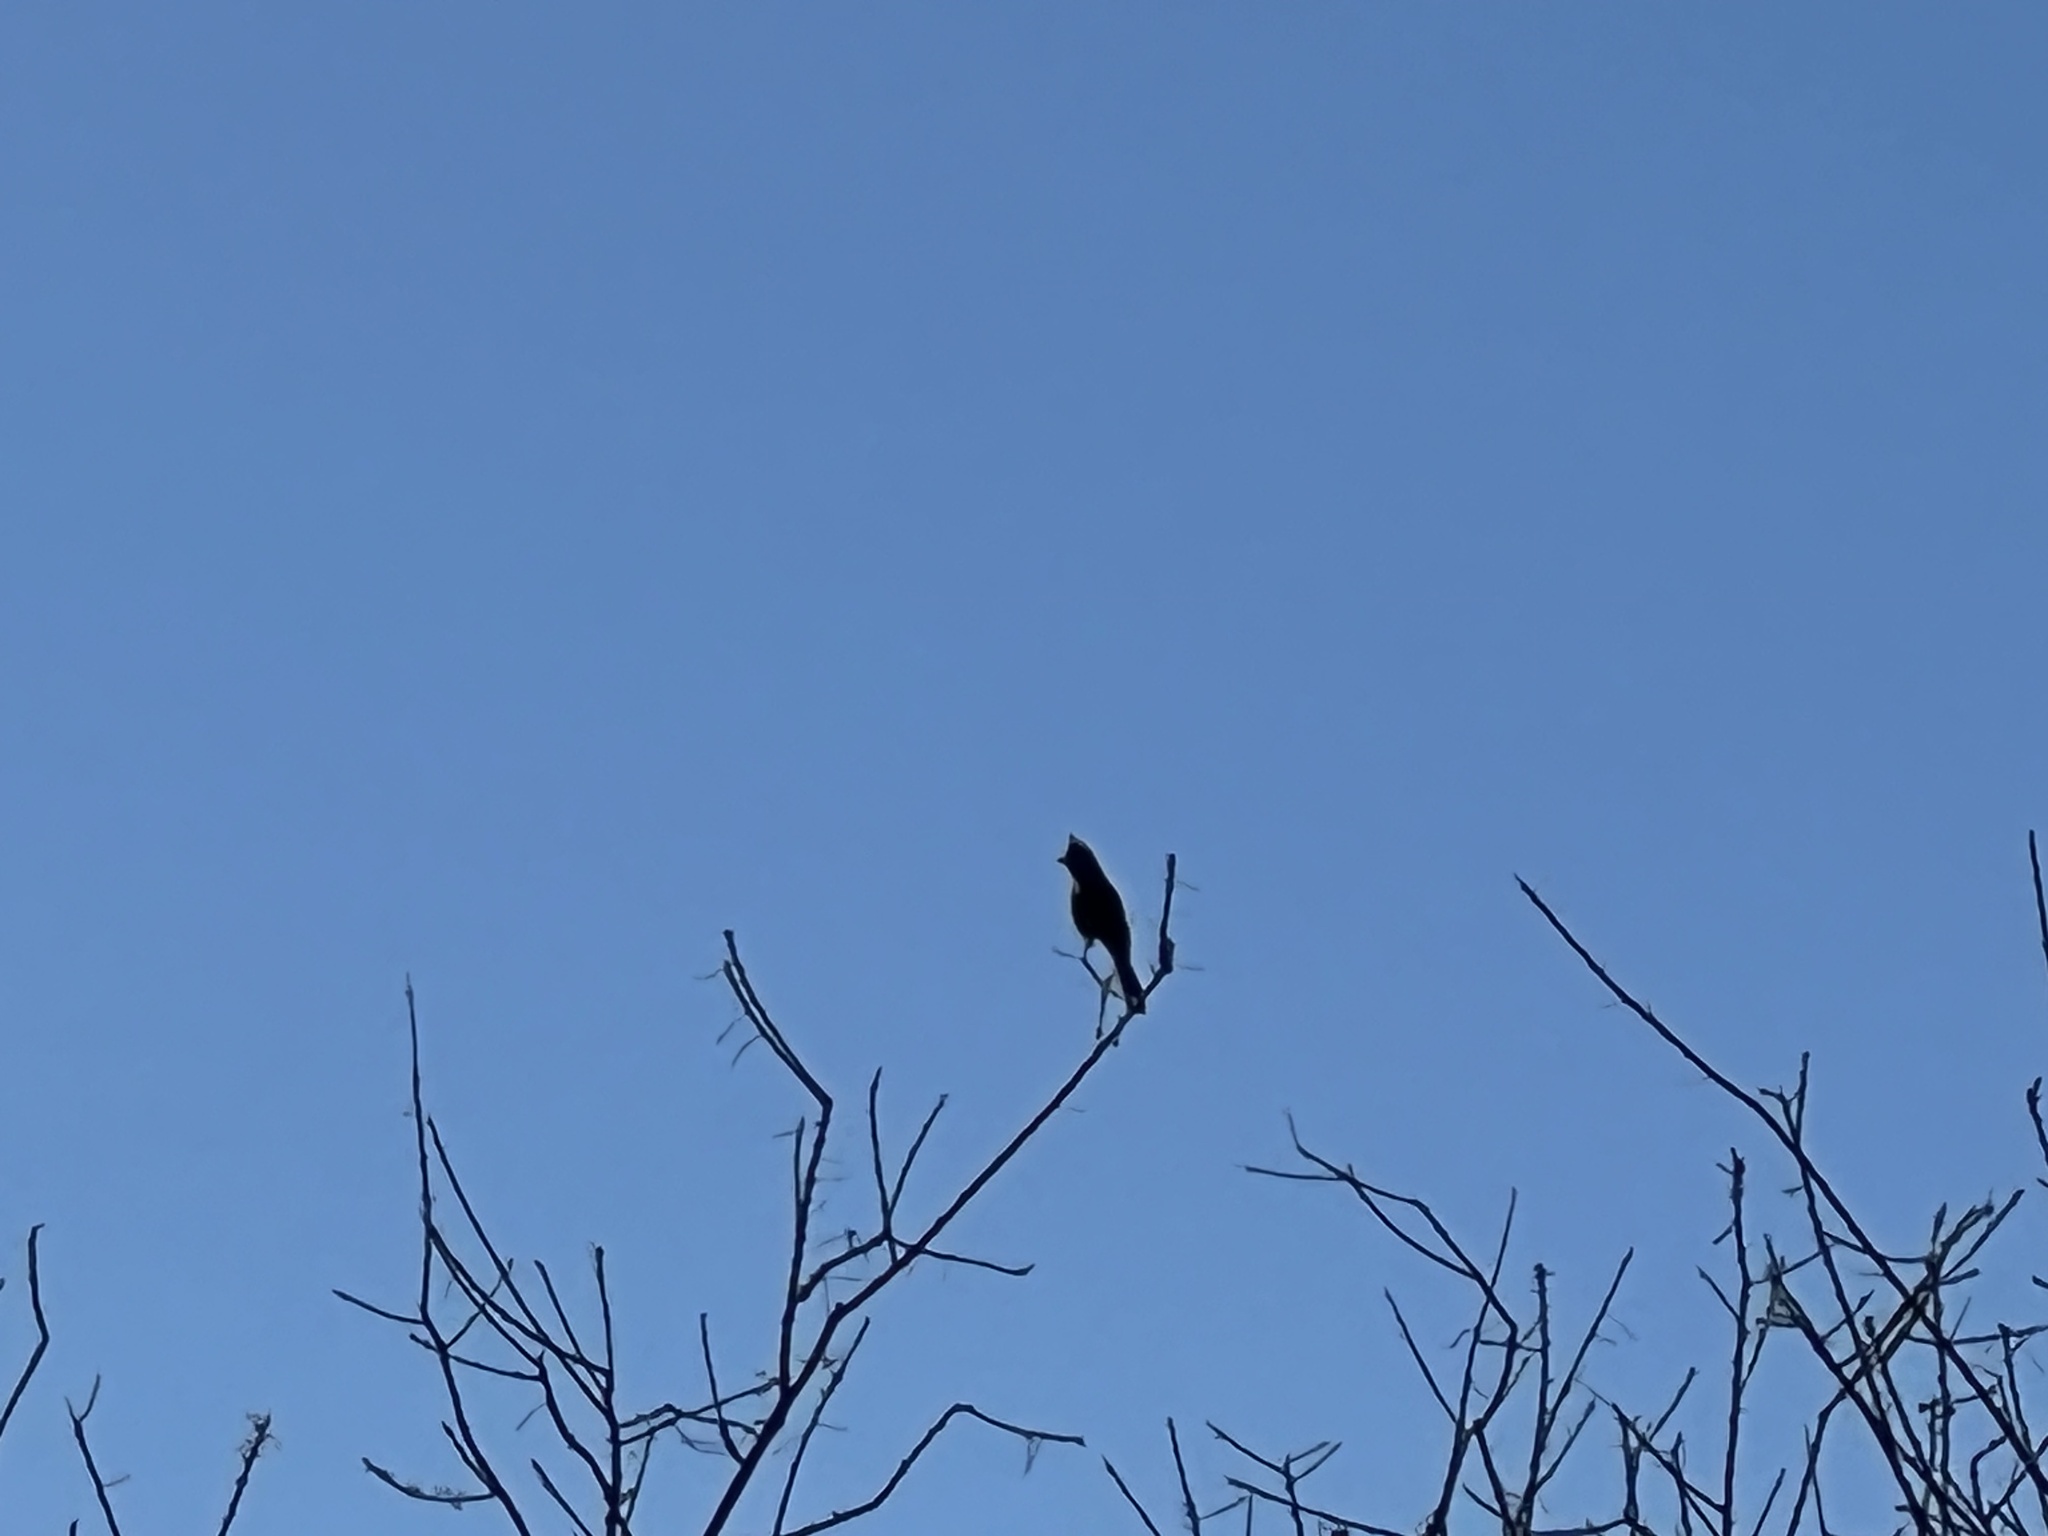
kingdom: Animalia
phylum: Chordata
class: Aves
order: Passeriformes
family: Ptilogonatidae
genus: Phainopepla
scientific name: Phainopepla nitens
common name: Phainopepla
